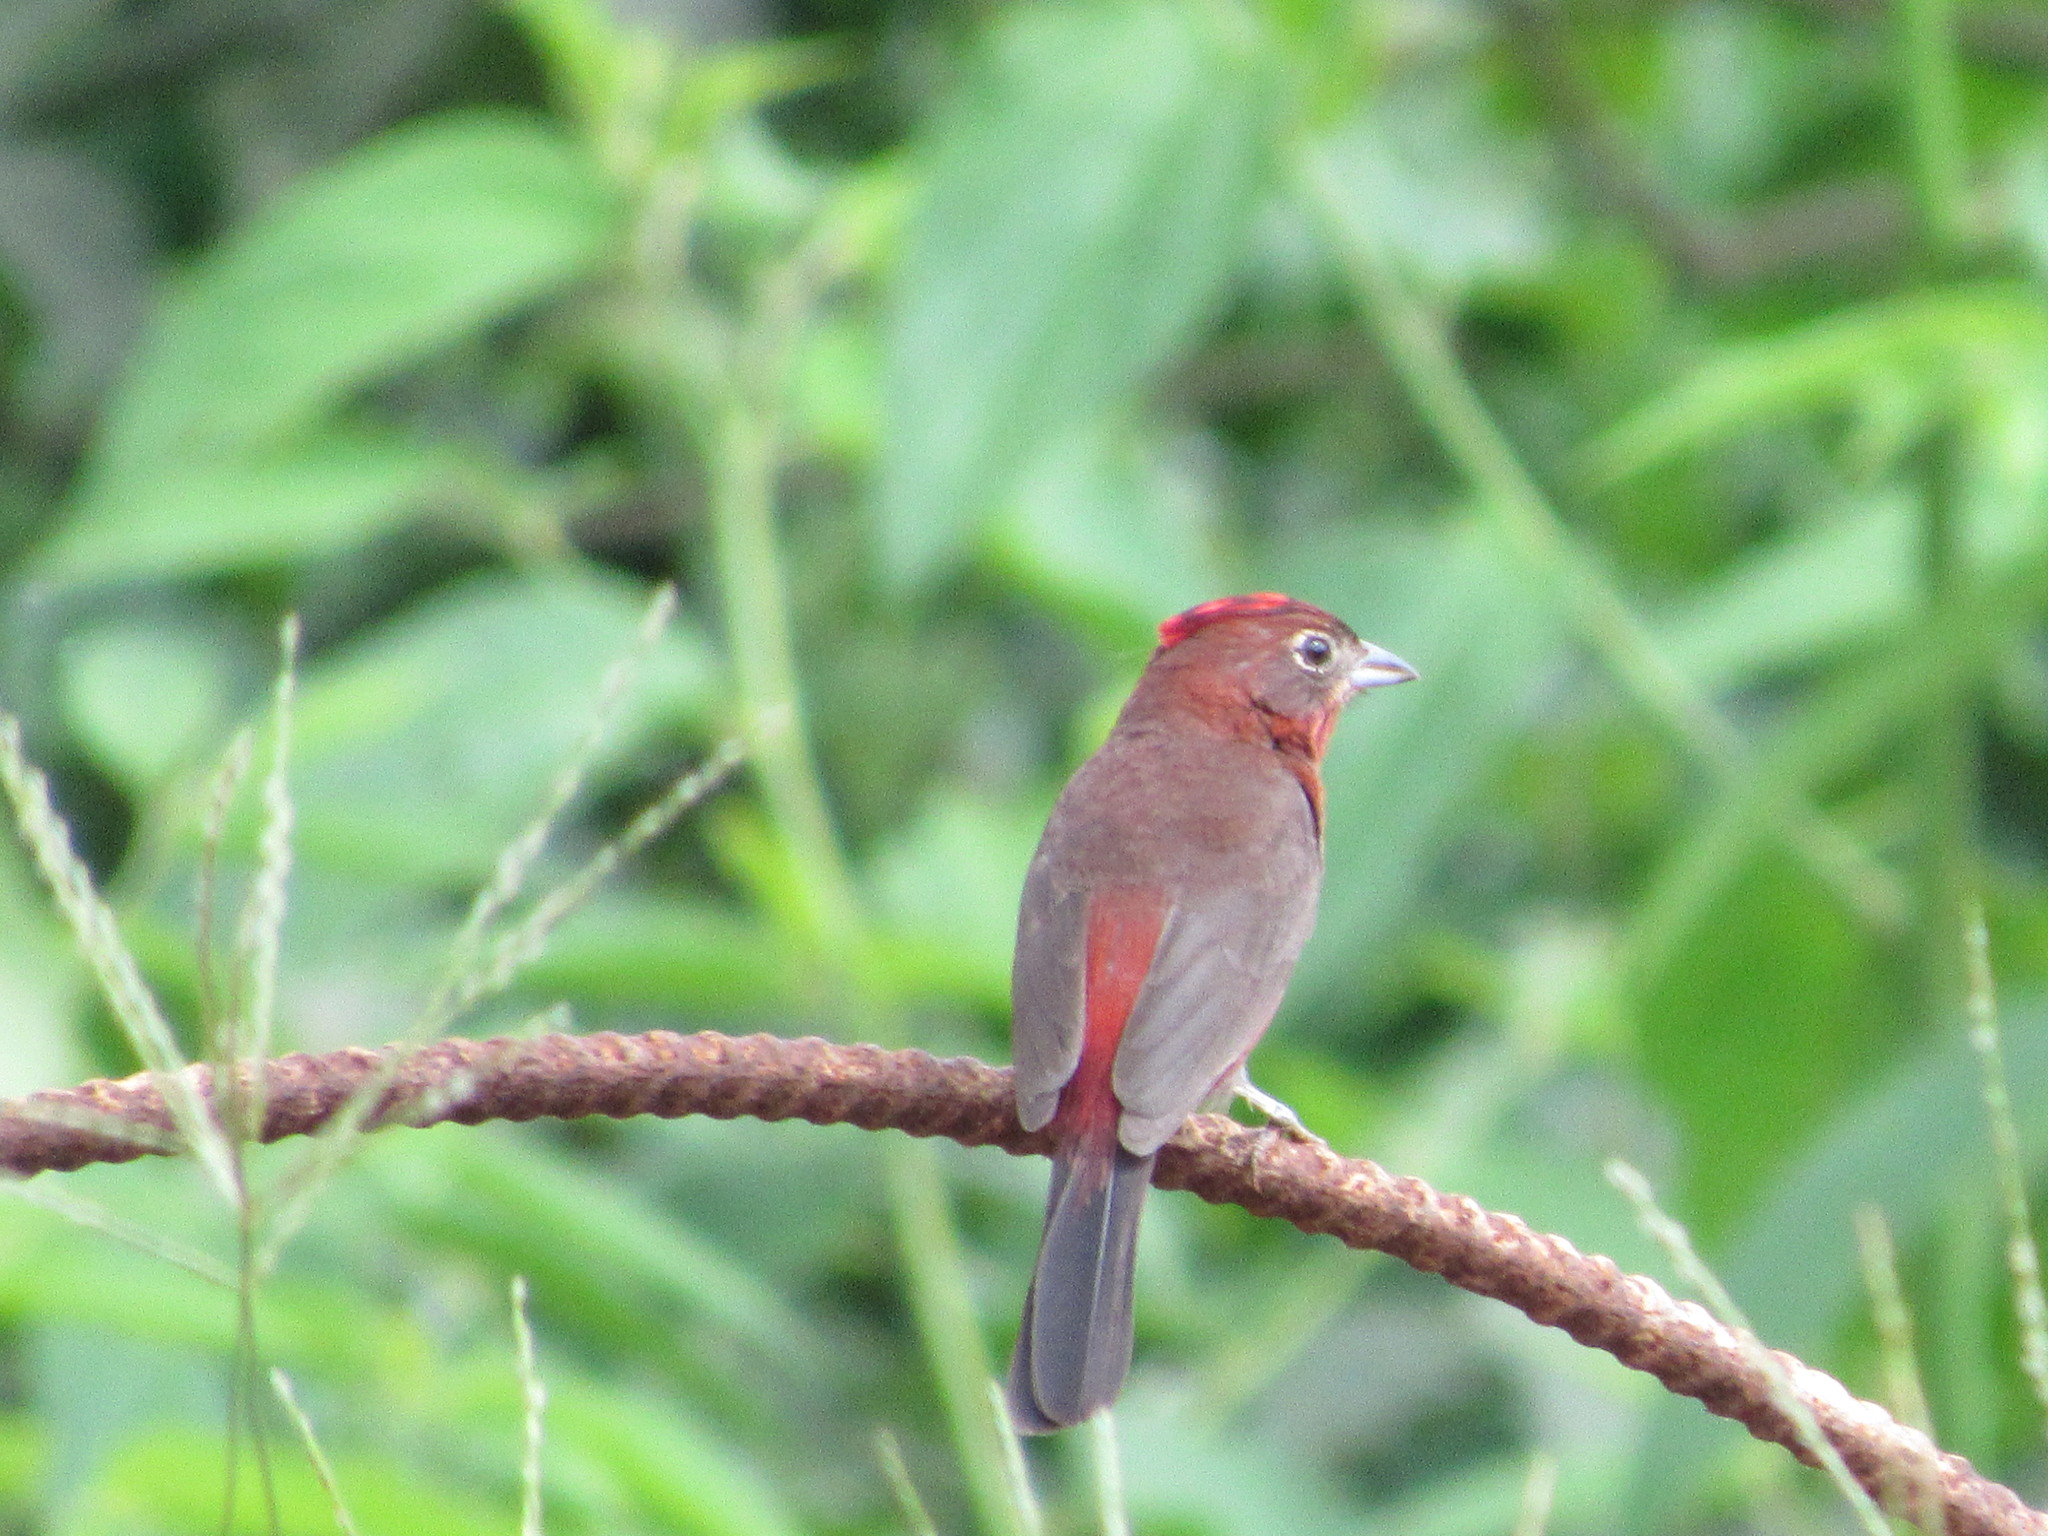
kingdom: Animalia
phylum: Chordata
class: Aves
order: Passeriformes
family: Thraupidae
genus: Coryphospingus
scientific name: Coryphospingus cucullatus
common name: Red pileated finch
